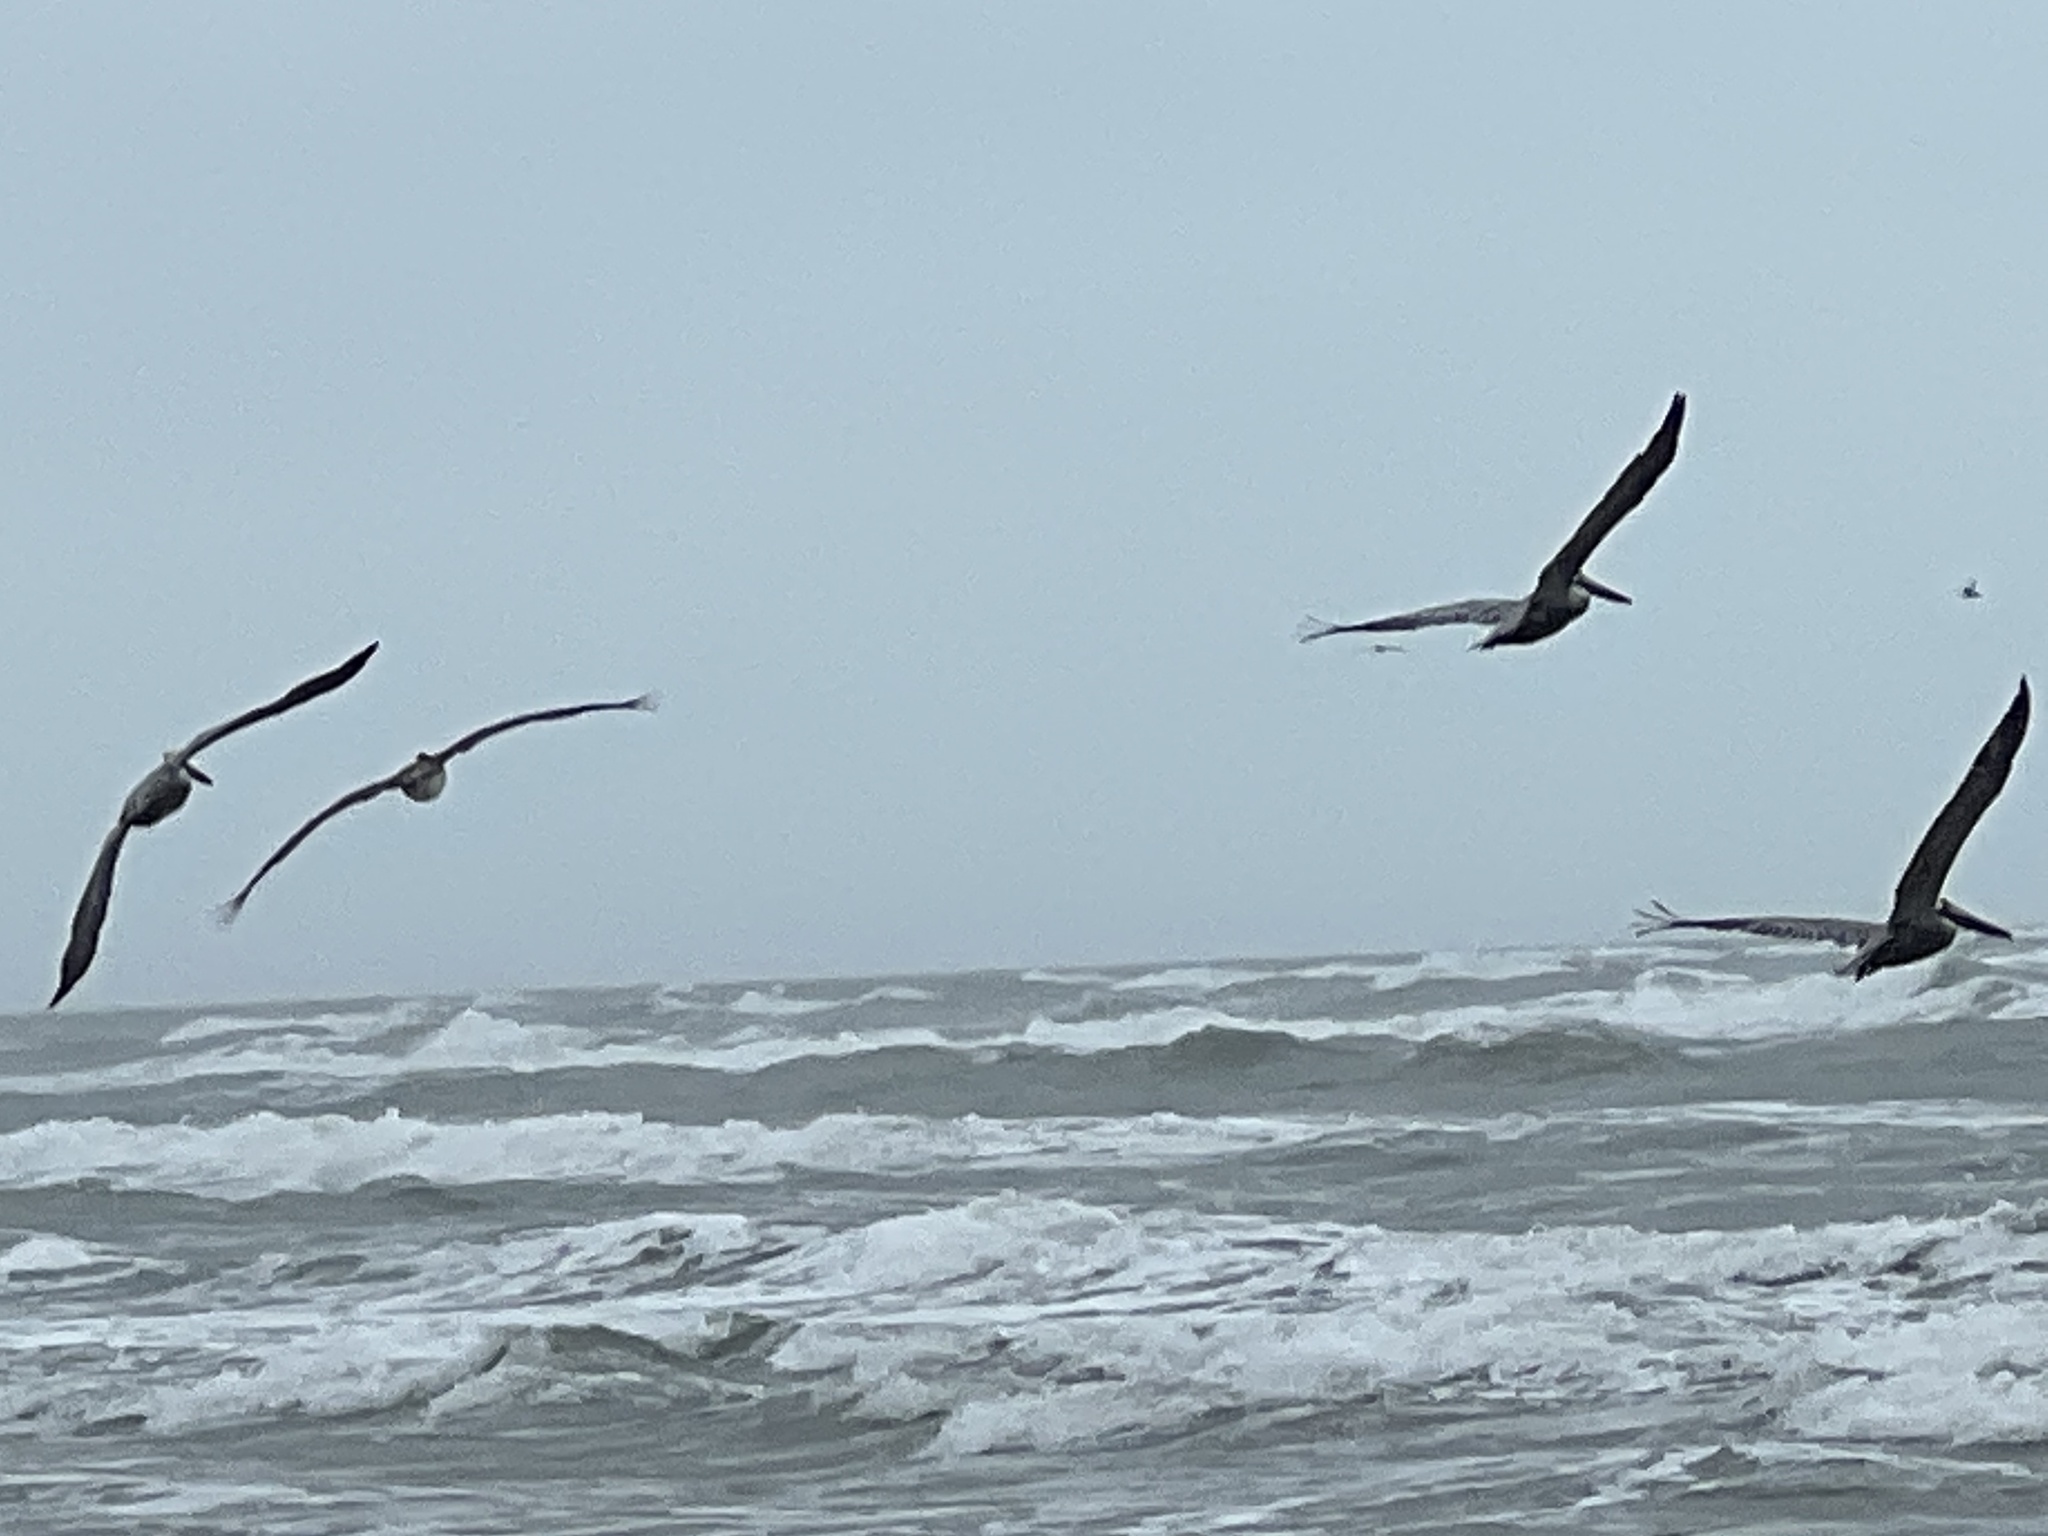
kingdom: Animalia
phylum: Chordata
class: Aves
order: Pelecaniformes
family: Pelecanidae
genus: Pelecanus
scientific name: Pelecanus occidentalis
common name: Brown pelican
